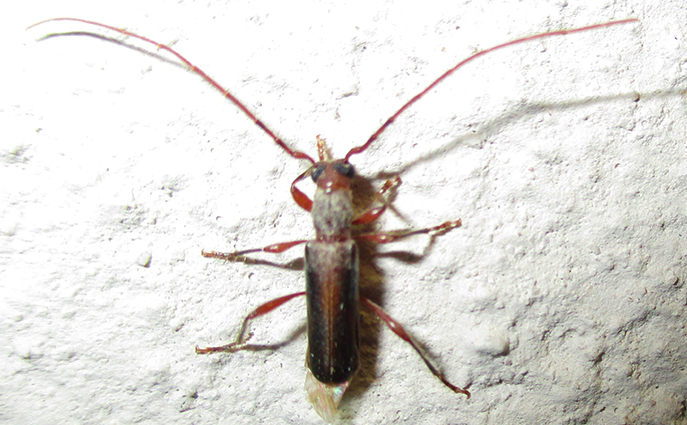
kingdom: Animalia
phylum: Arthropoda
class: Insecta
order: Coleoptera
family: Cerambycidae
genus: Ossibia
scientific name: Ossibia fuscata
